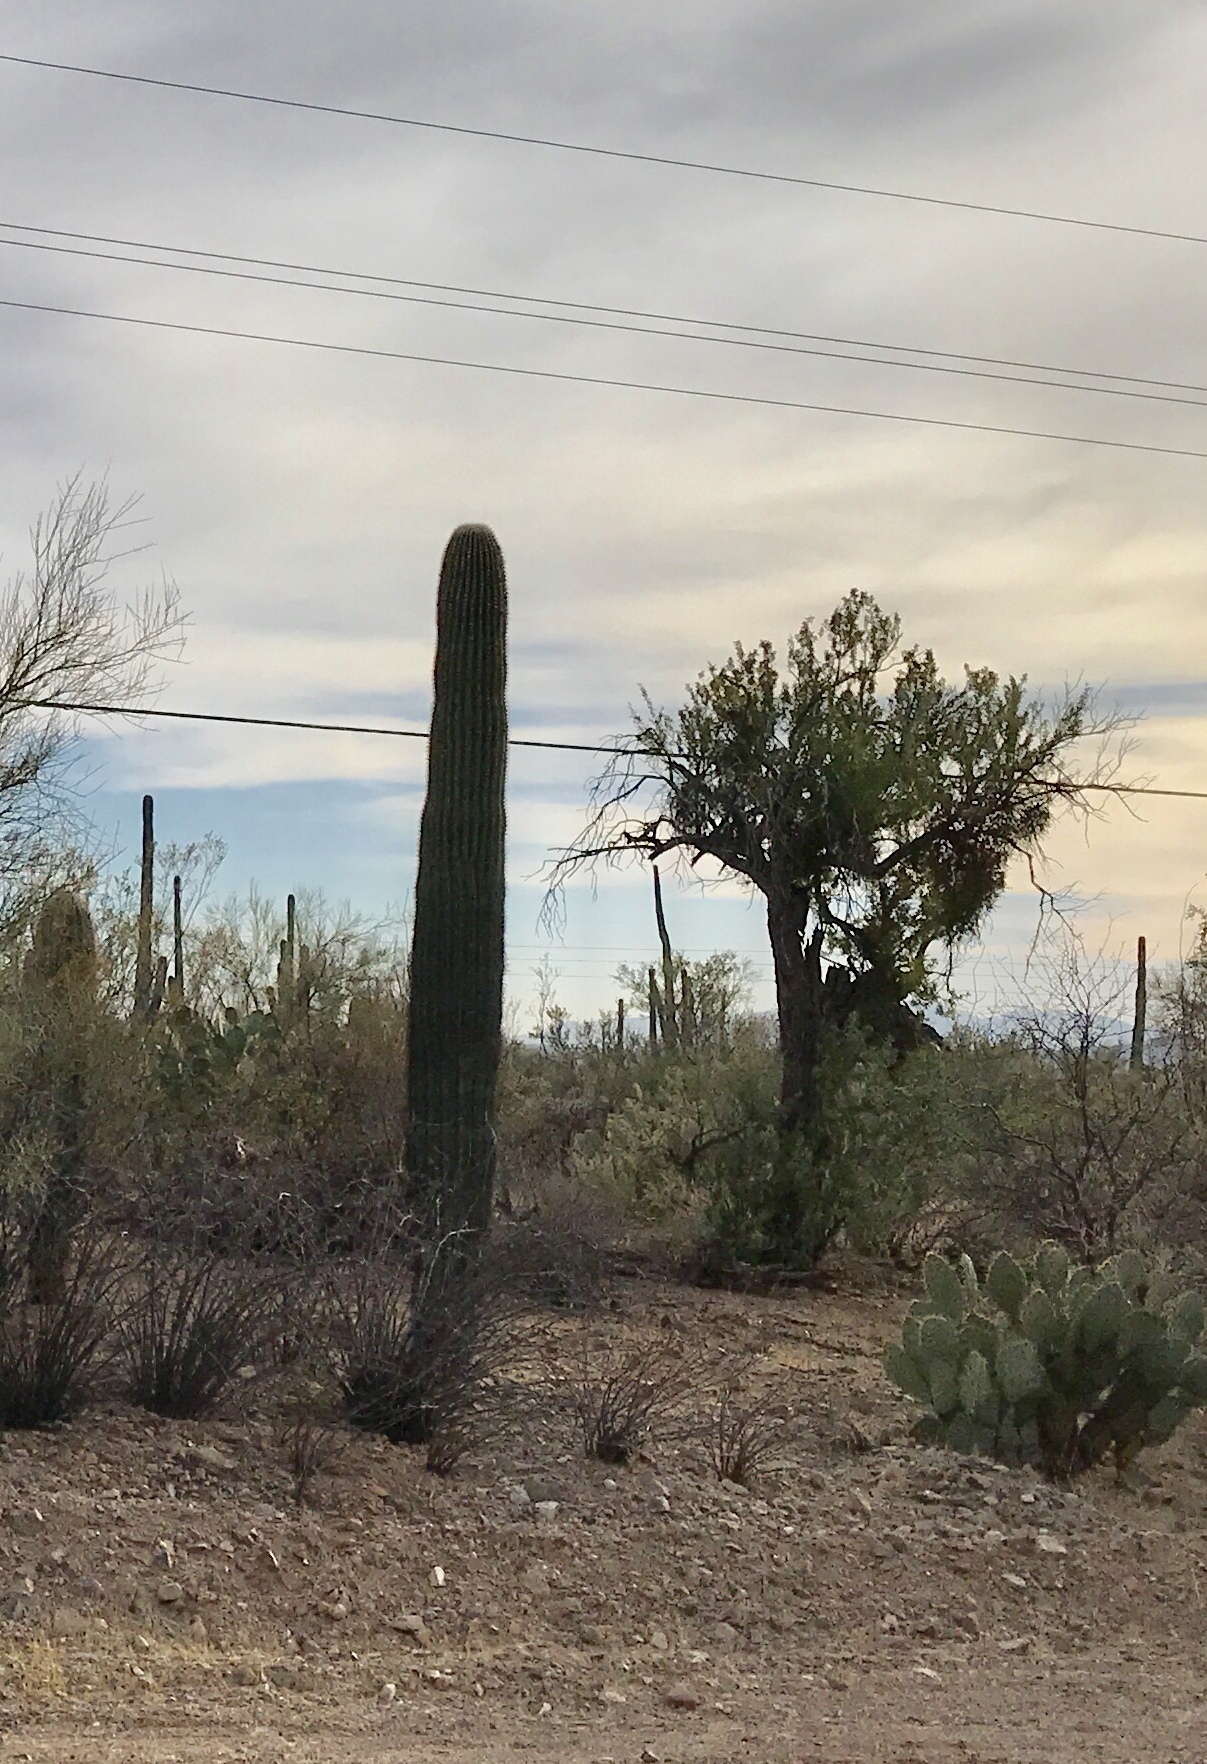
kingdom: Plantae
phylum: Tracheophyta
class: Magnoliopsida
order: Caryophyllales
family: Cactaceae
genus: Carnegiea
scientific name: Carnegiea gigantea
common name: Saguaro
